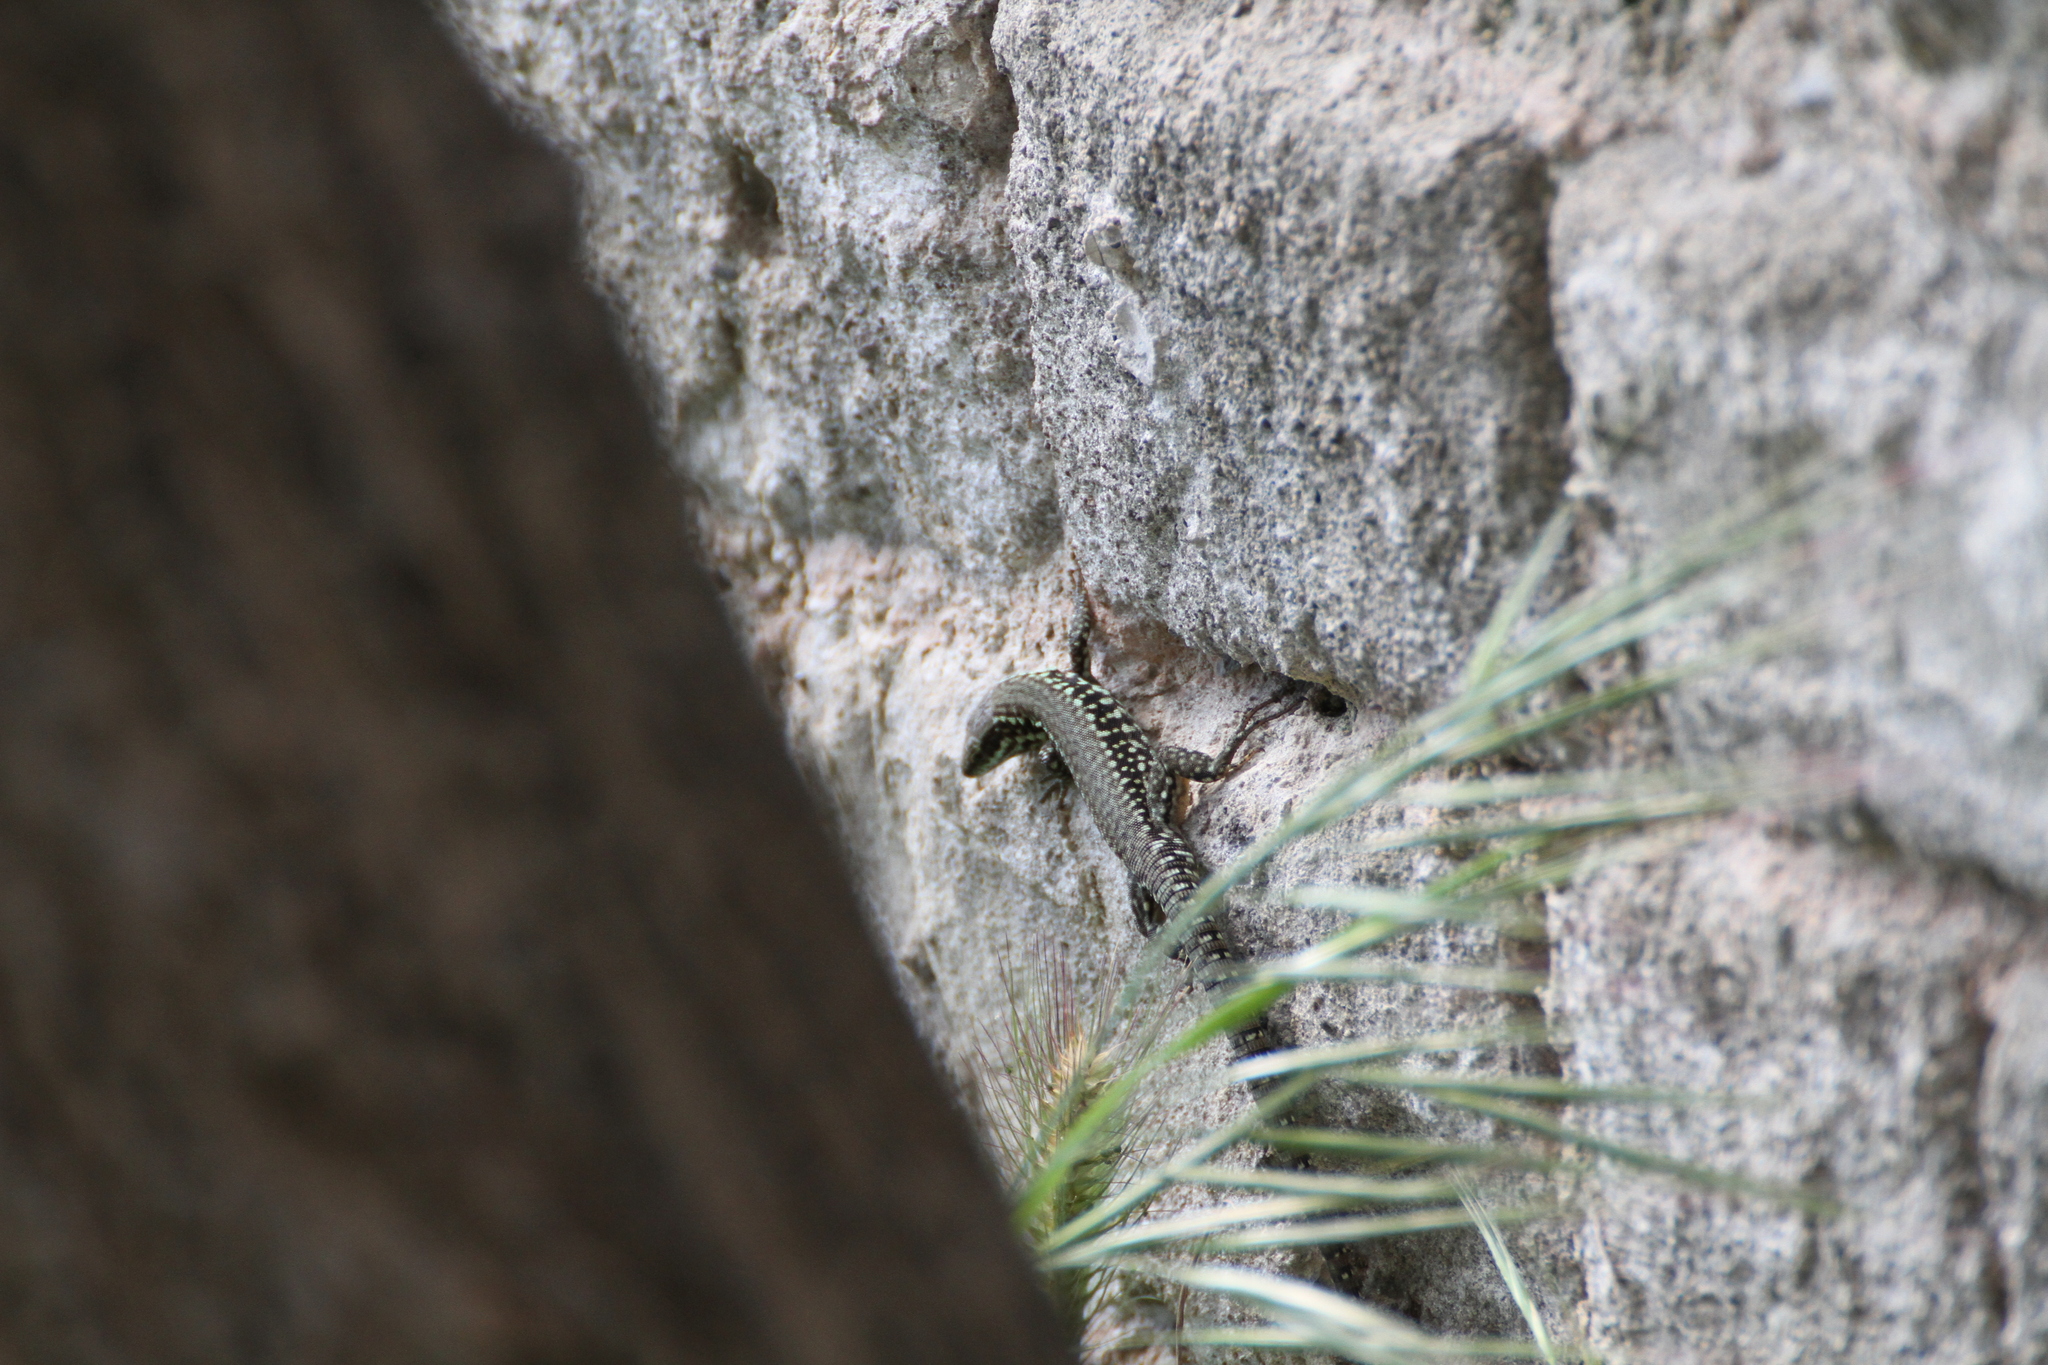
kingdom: Animalia
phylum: Chordata
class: Squamata
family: Lacertidae
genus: Podarcis
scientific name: Podarcis muralis
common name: Common wall lizard
